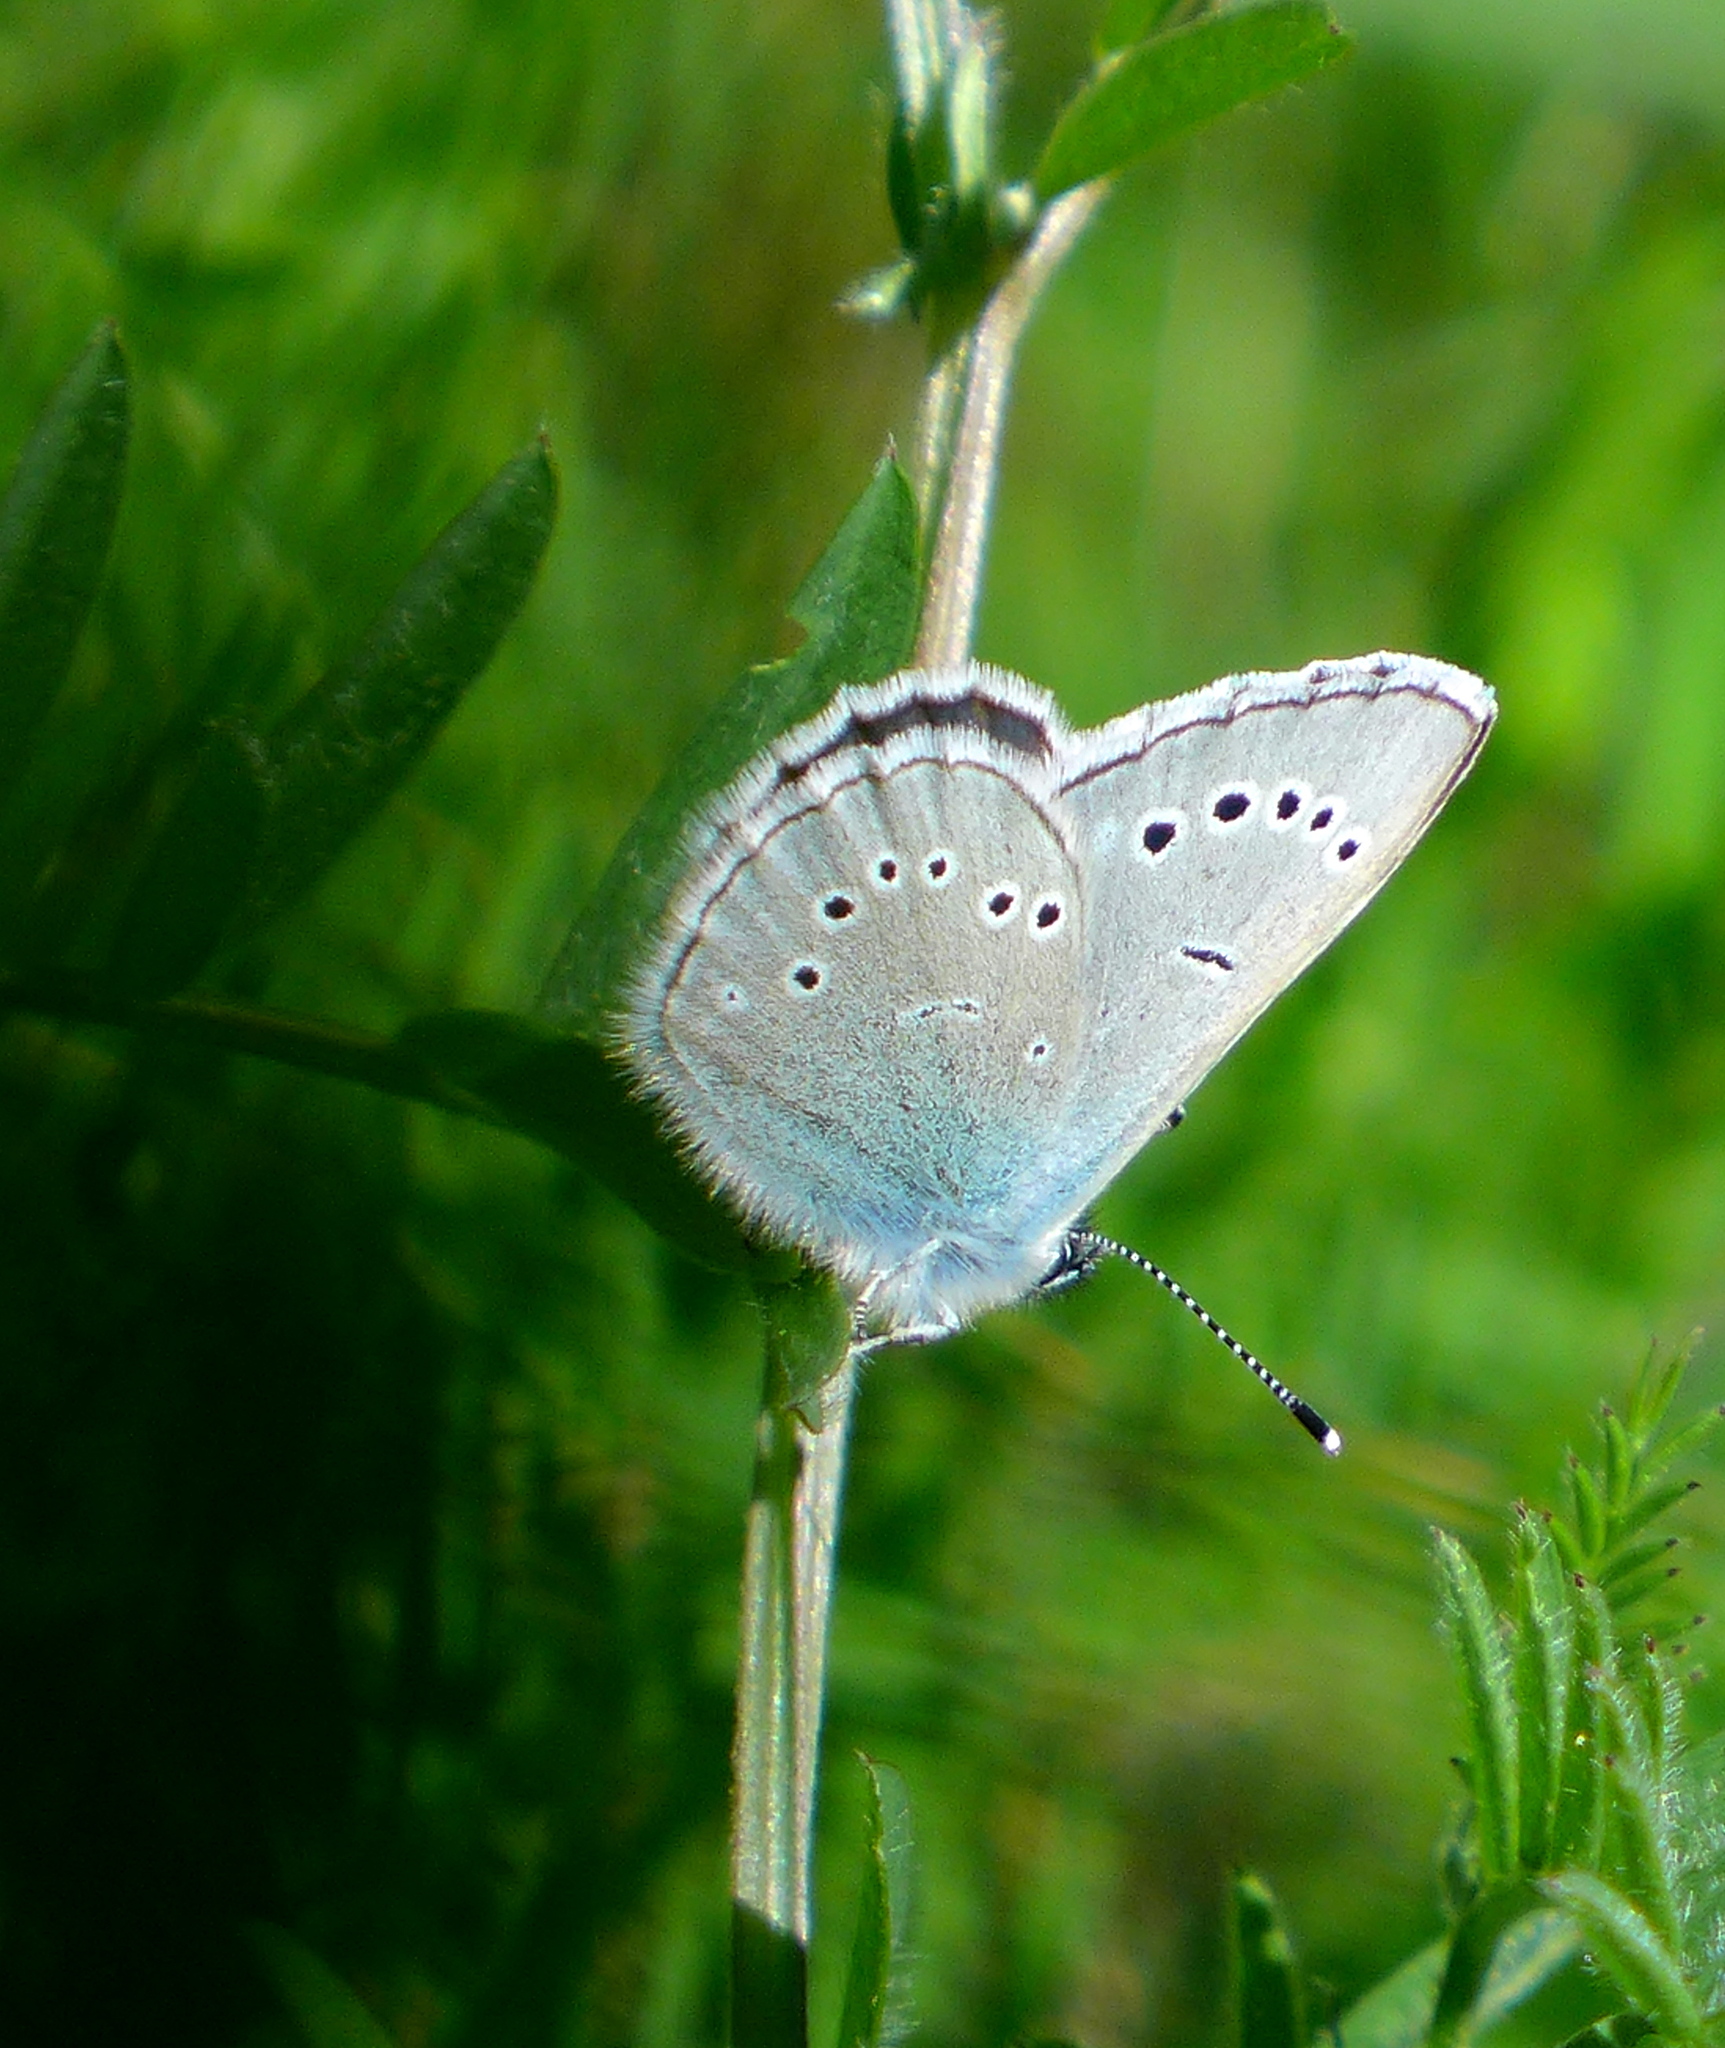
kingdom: Animalia
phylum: Arthropoda
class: Insecta
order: Lepidoptera
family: Lycaenidae
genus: Glaucopsyche
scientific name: Glaucopsyche lygdamus
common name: Silvery blue
